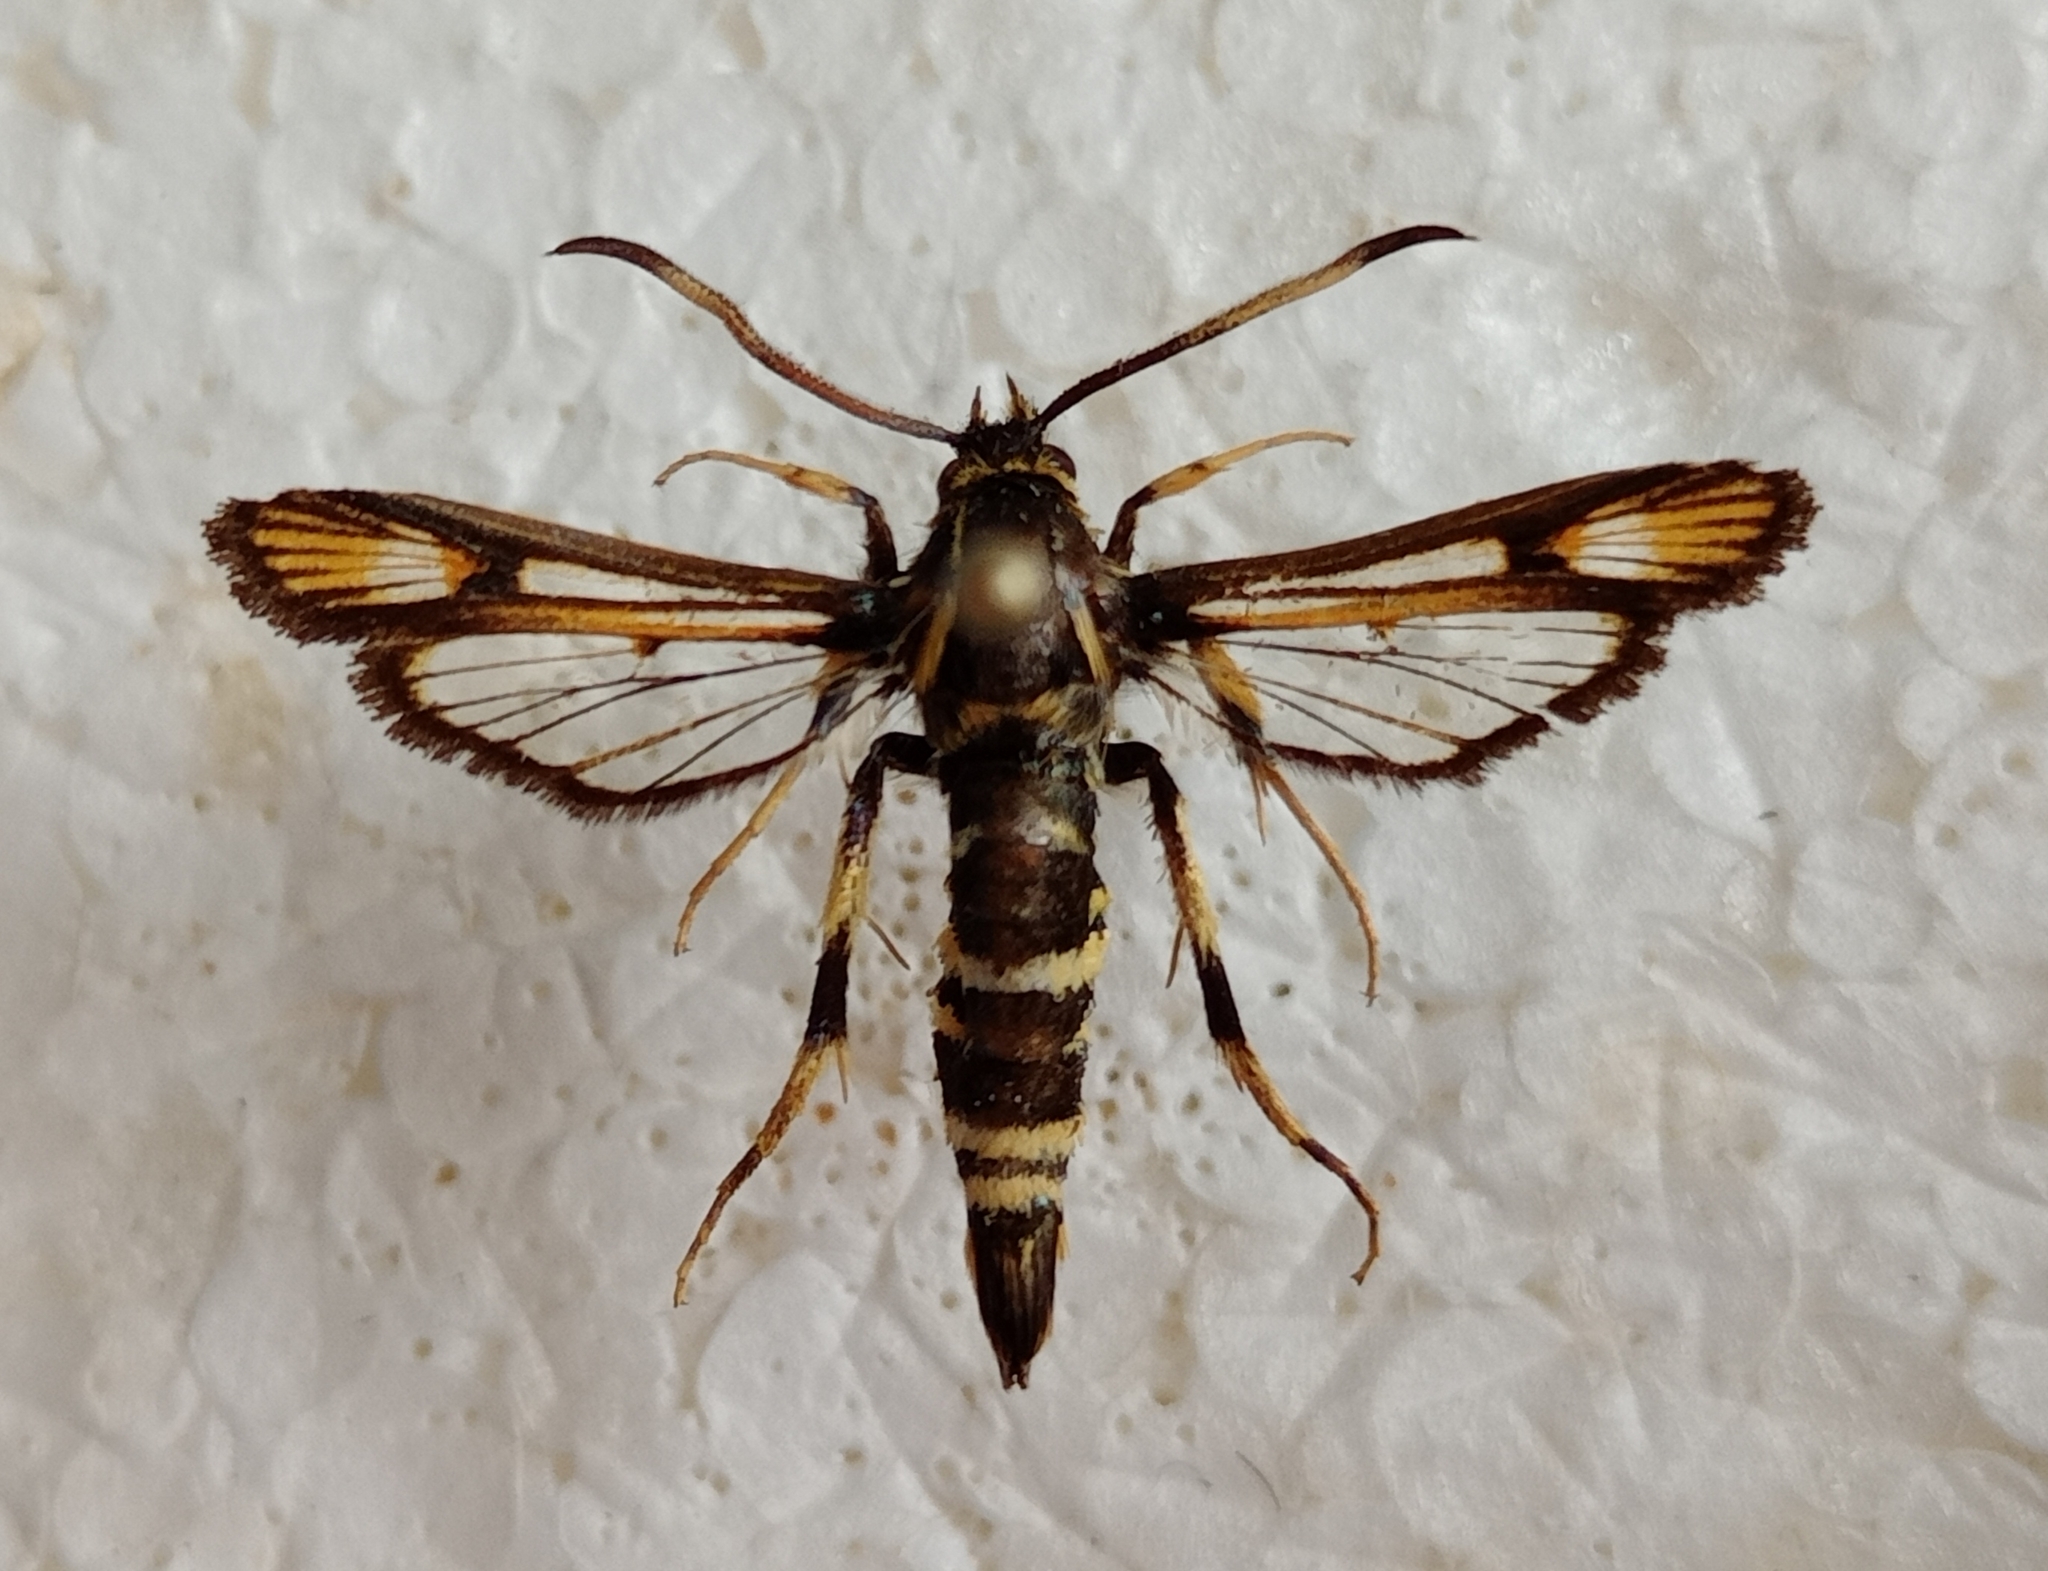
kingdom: Animalia
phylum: Arthropoda
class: Insecta
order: Lepidoptera
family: Sesiidae
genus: Bembecia
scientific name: Bembecia pavicevici
